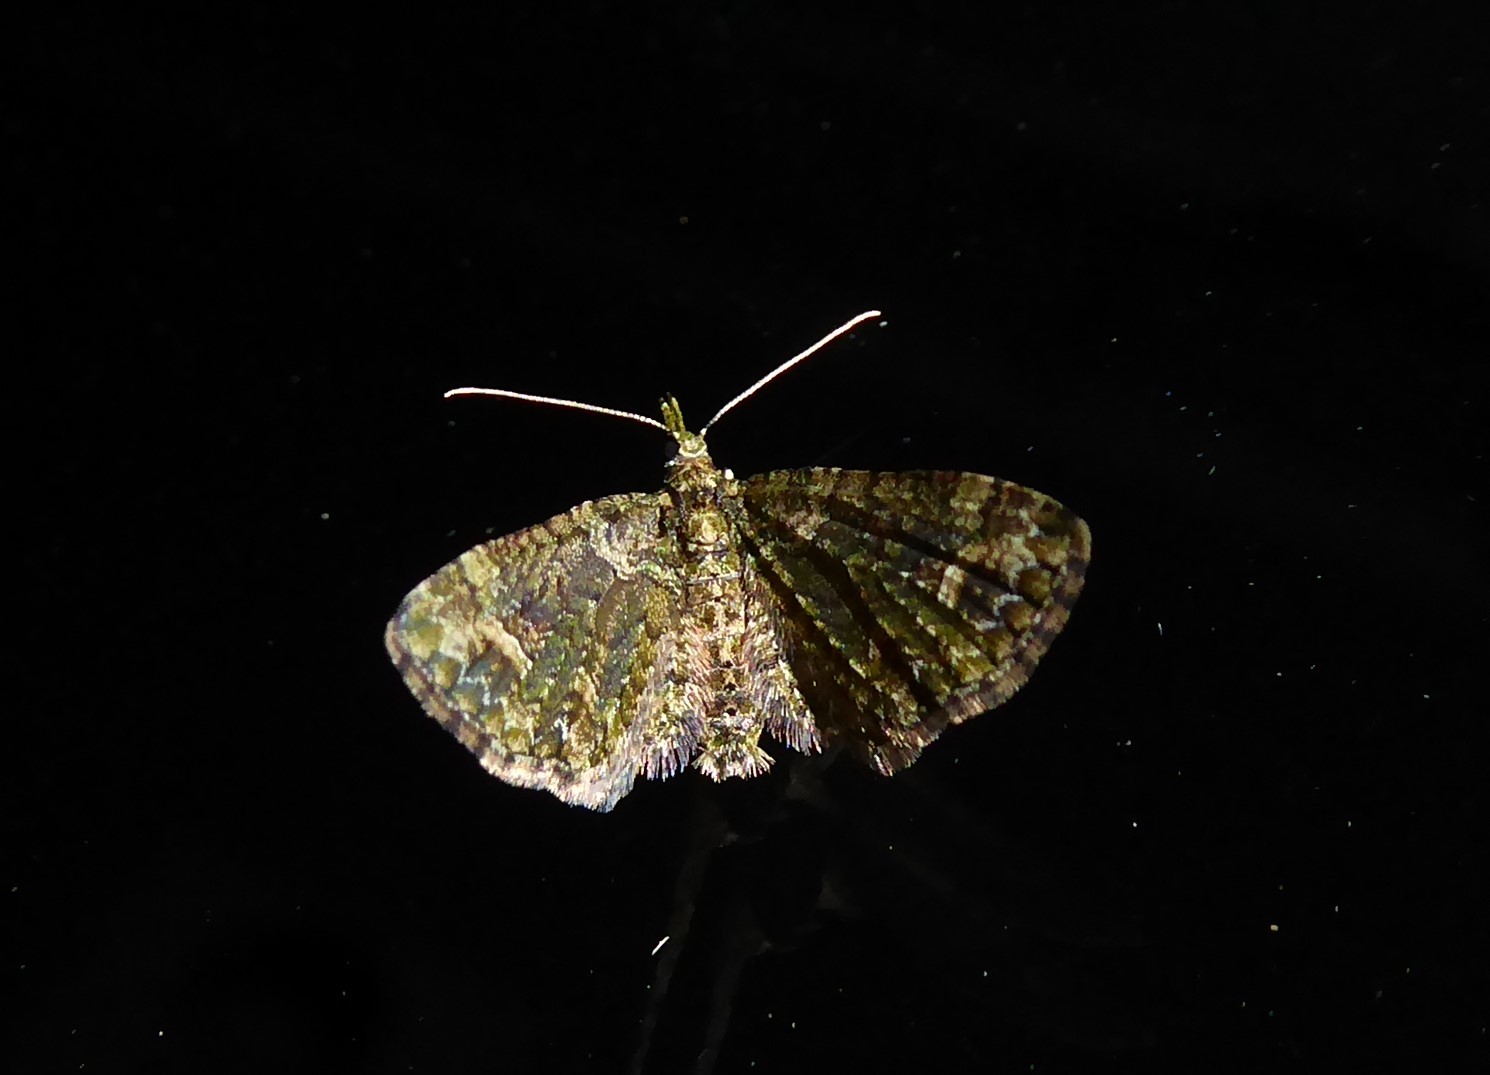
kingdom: Animalia
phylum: Arthropoda
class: Insecta
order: Lepidoptera
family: Geometridae
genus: Idaea
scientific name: Idaea mutanda
